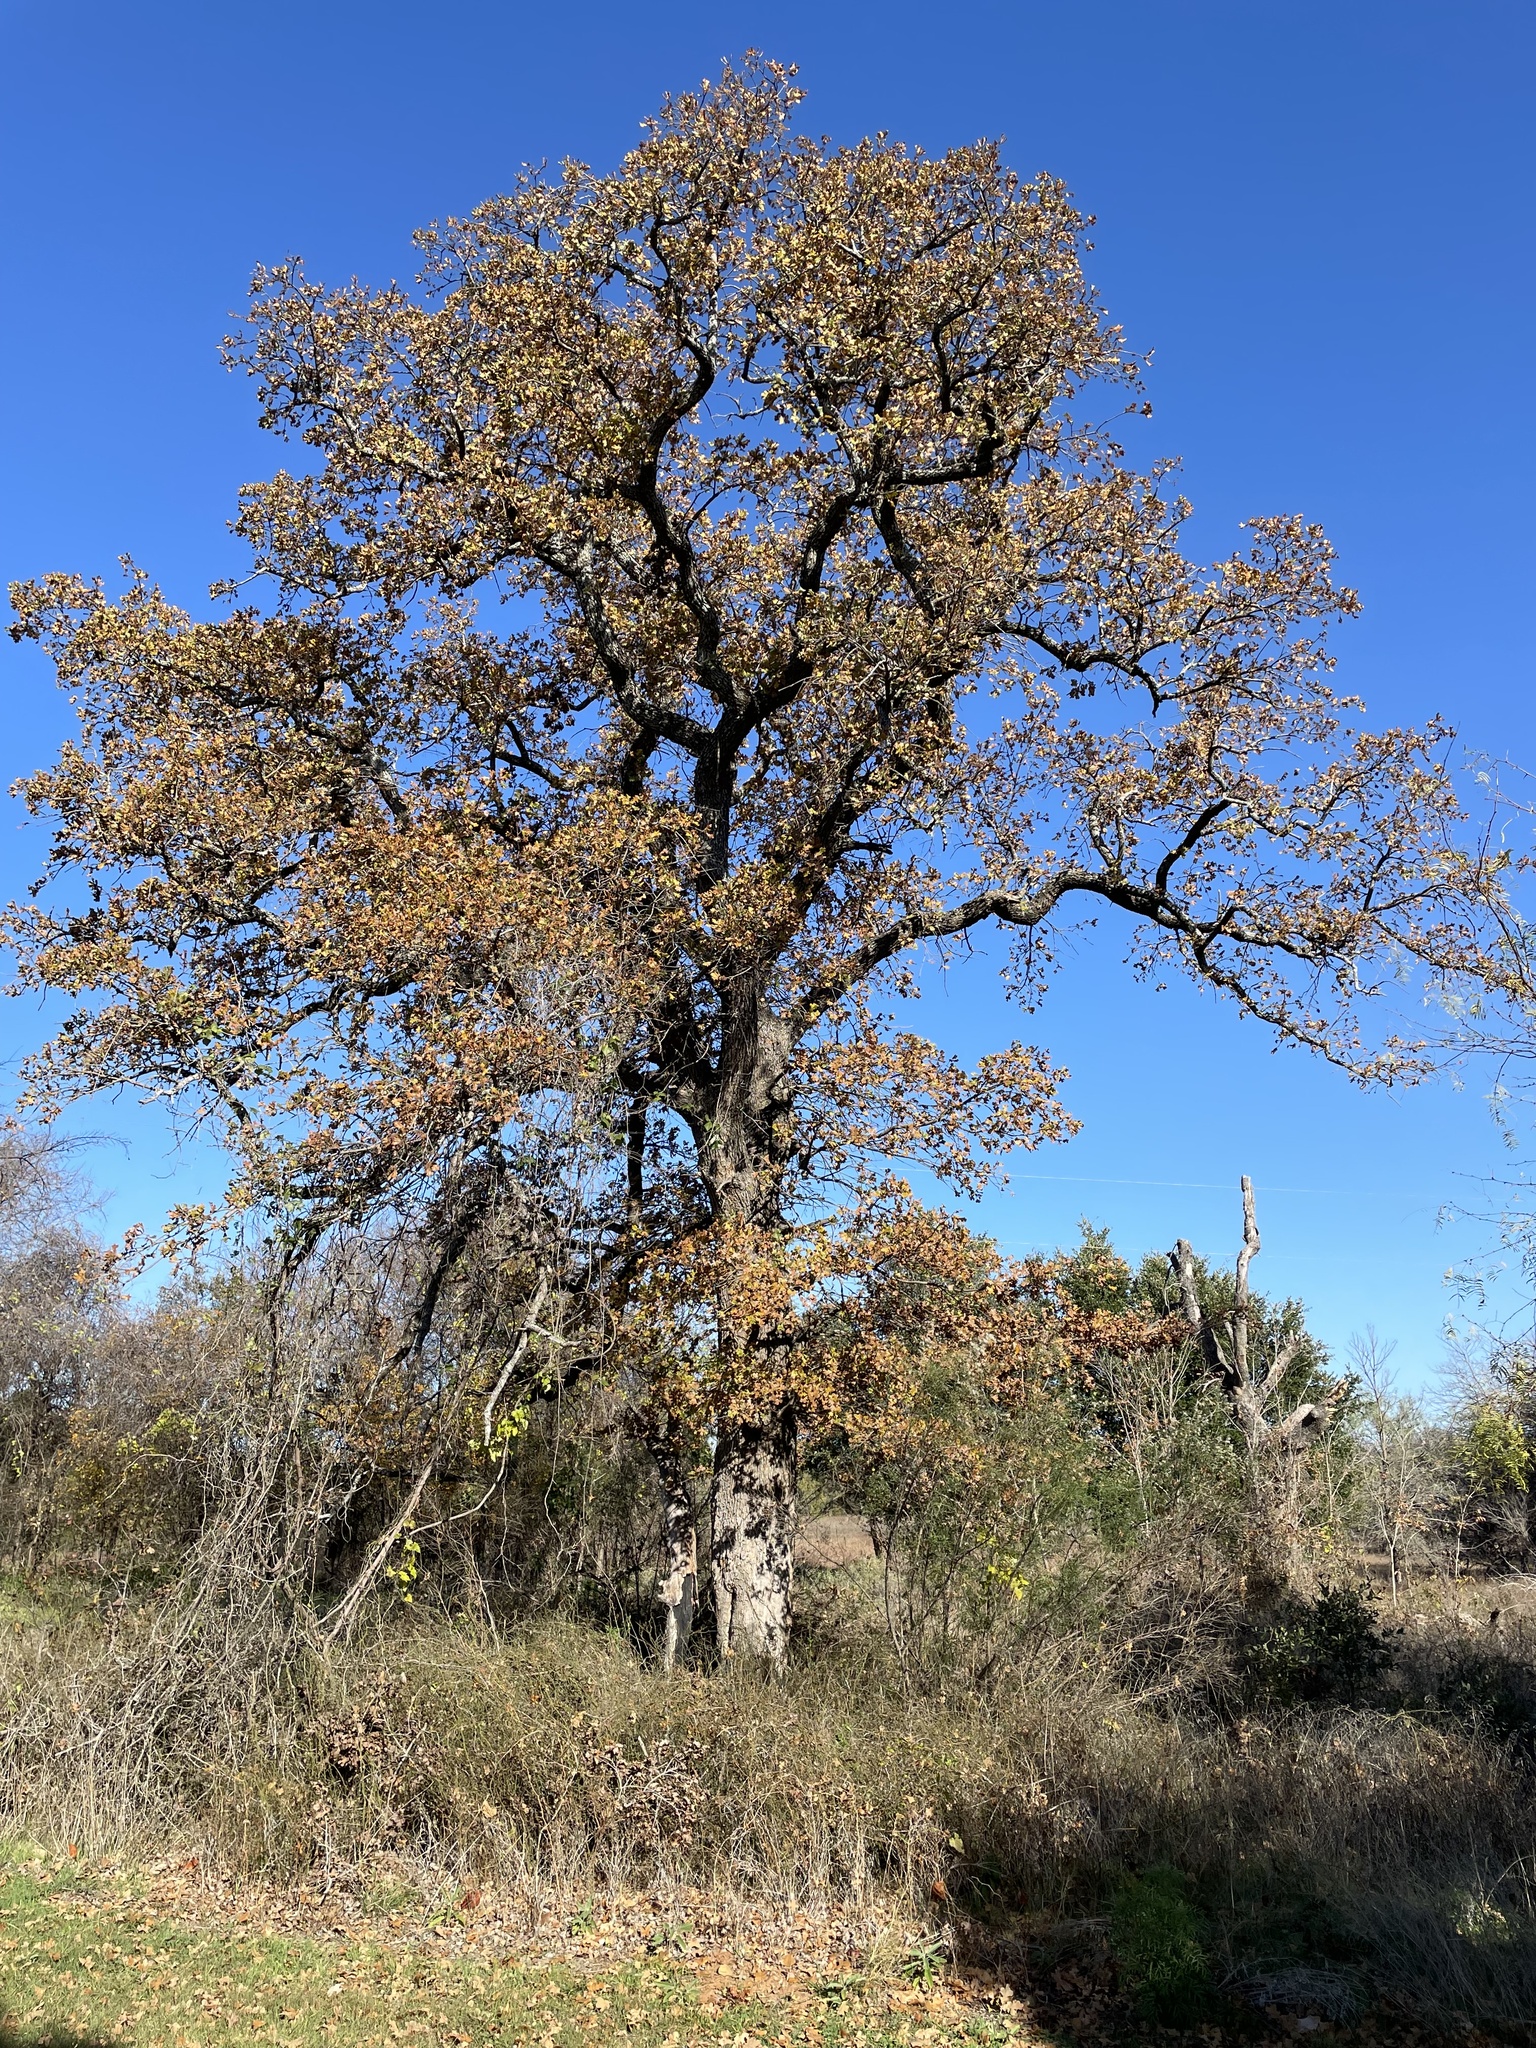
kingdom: Plantae
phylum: Tracheophyta
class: Magnoliopsida
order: Fagales
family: Fagaceae
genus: Quercus
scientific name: Quercus stellata
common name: Post oak
